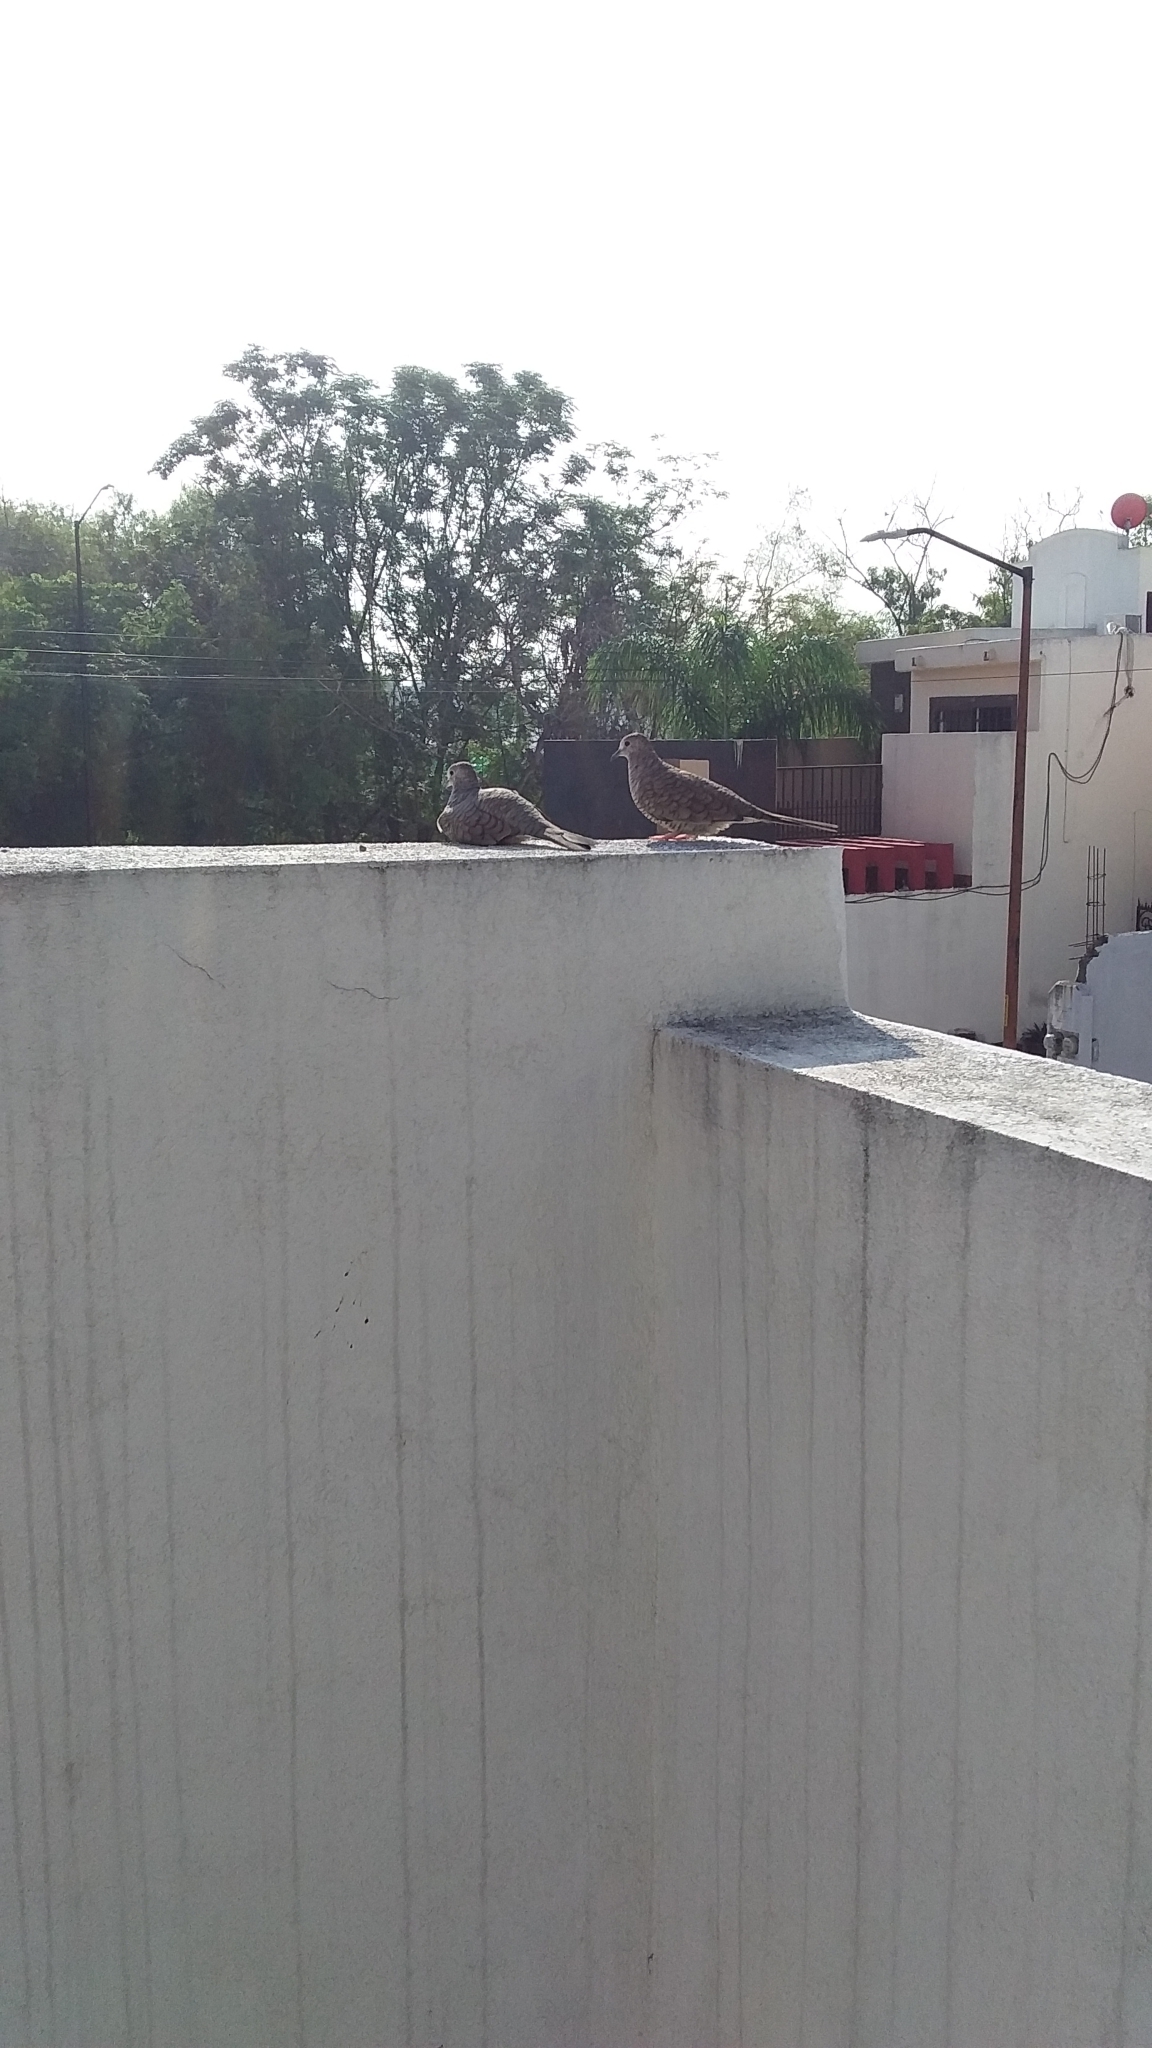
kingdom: Animalia
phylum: Chordata
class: Aves
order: Columbiformes
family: Columbidae
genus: Columbina
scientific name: Columbina inca
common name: Inca dove
